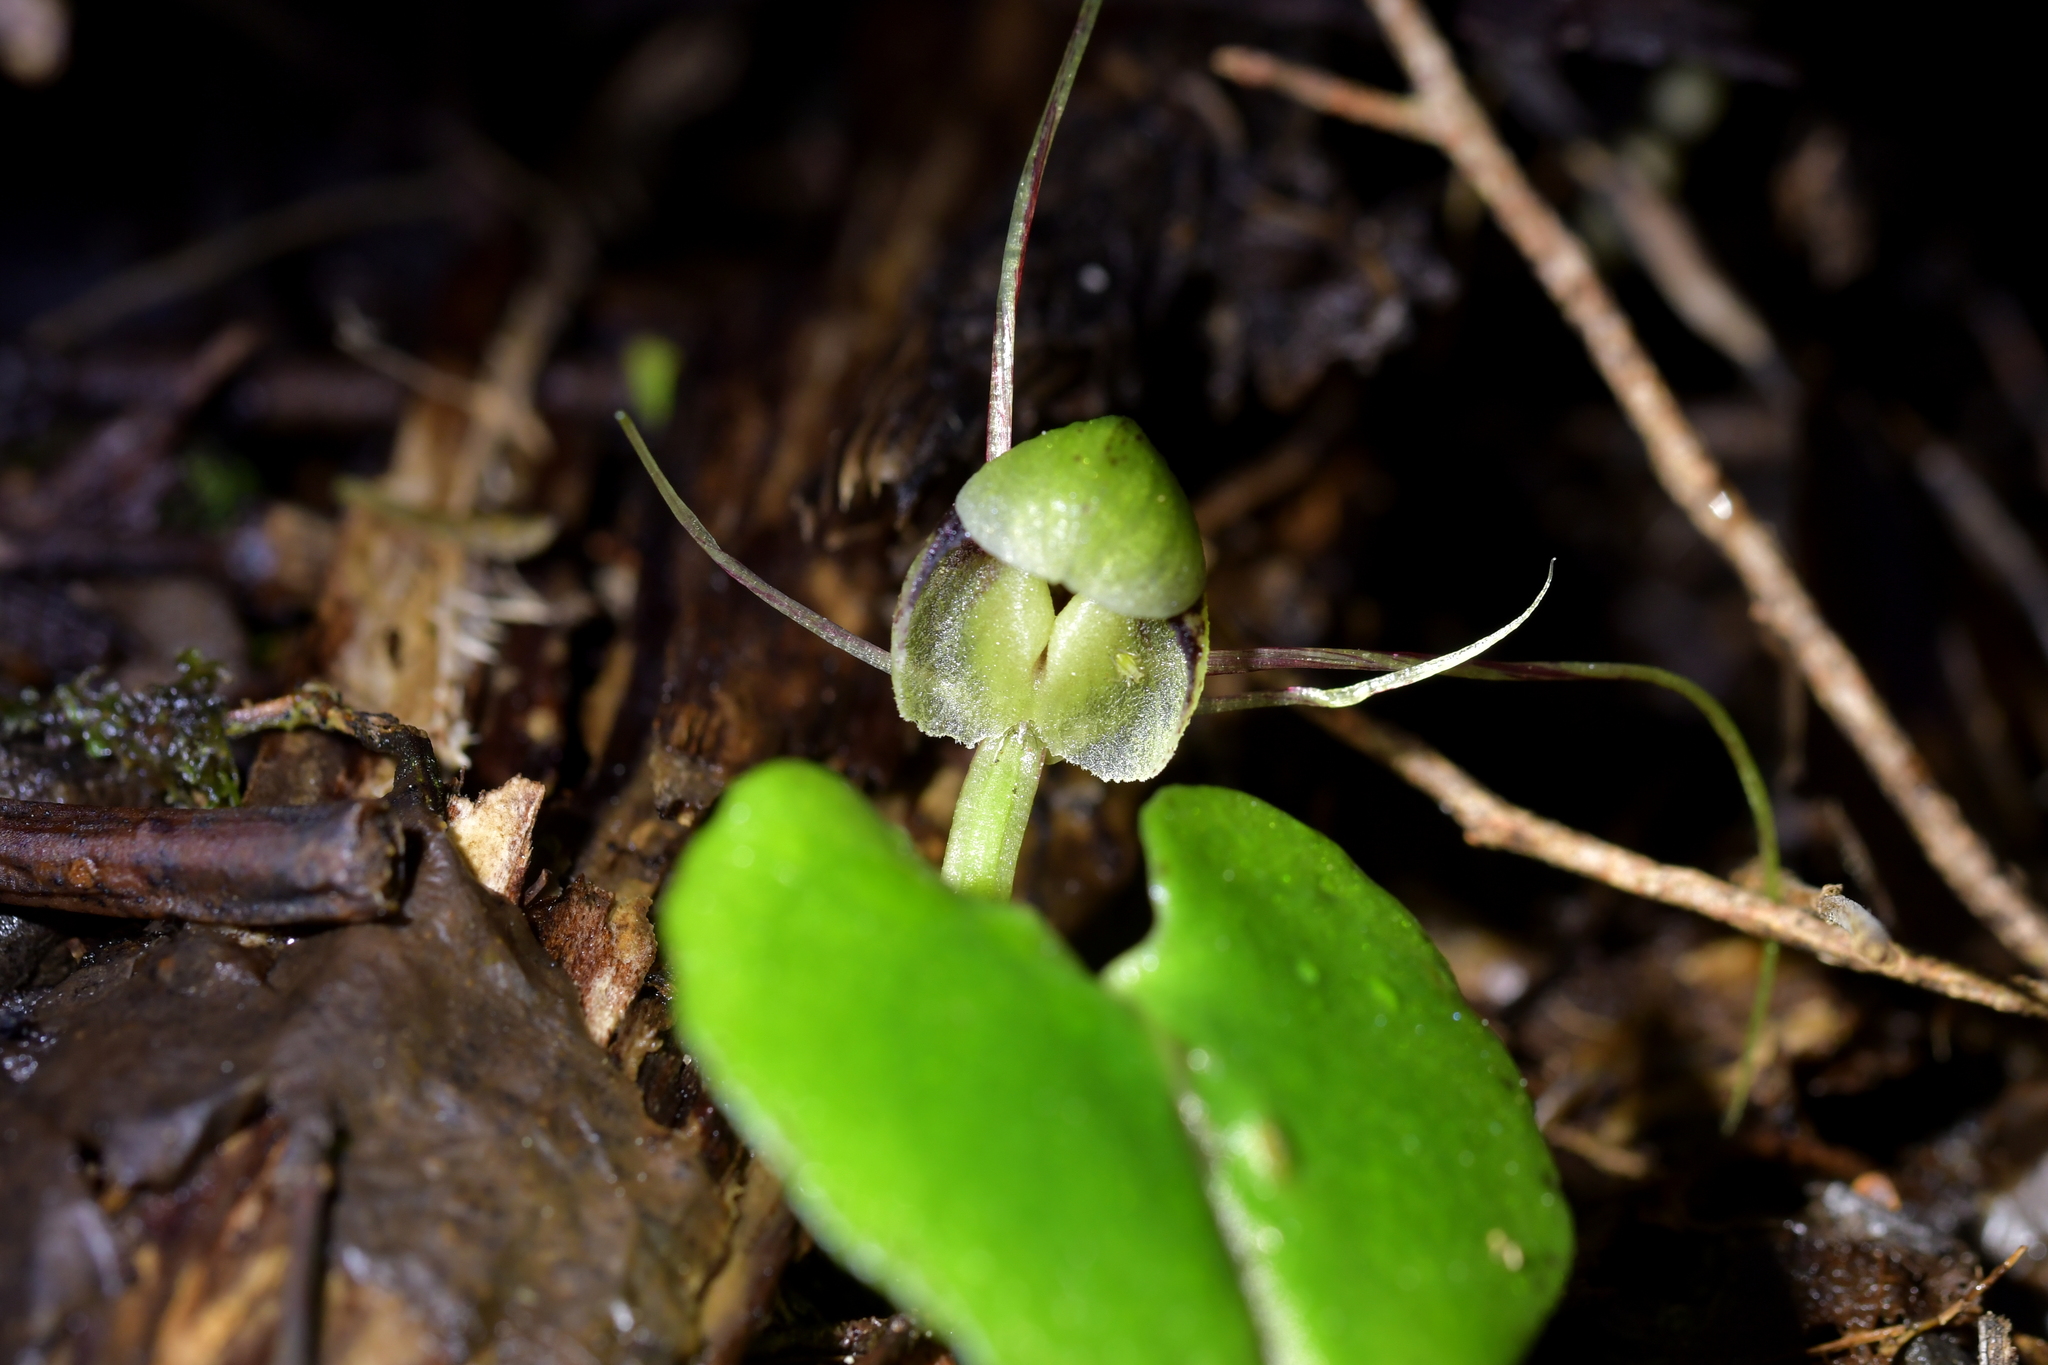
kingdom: Plantae
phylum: Tracheophyta
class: Liliopsida
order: Asparagales
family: Orchidaceae
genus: Corybas
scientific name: Corybas vitreus
